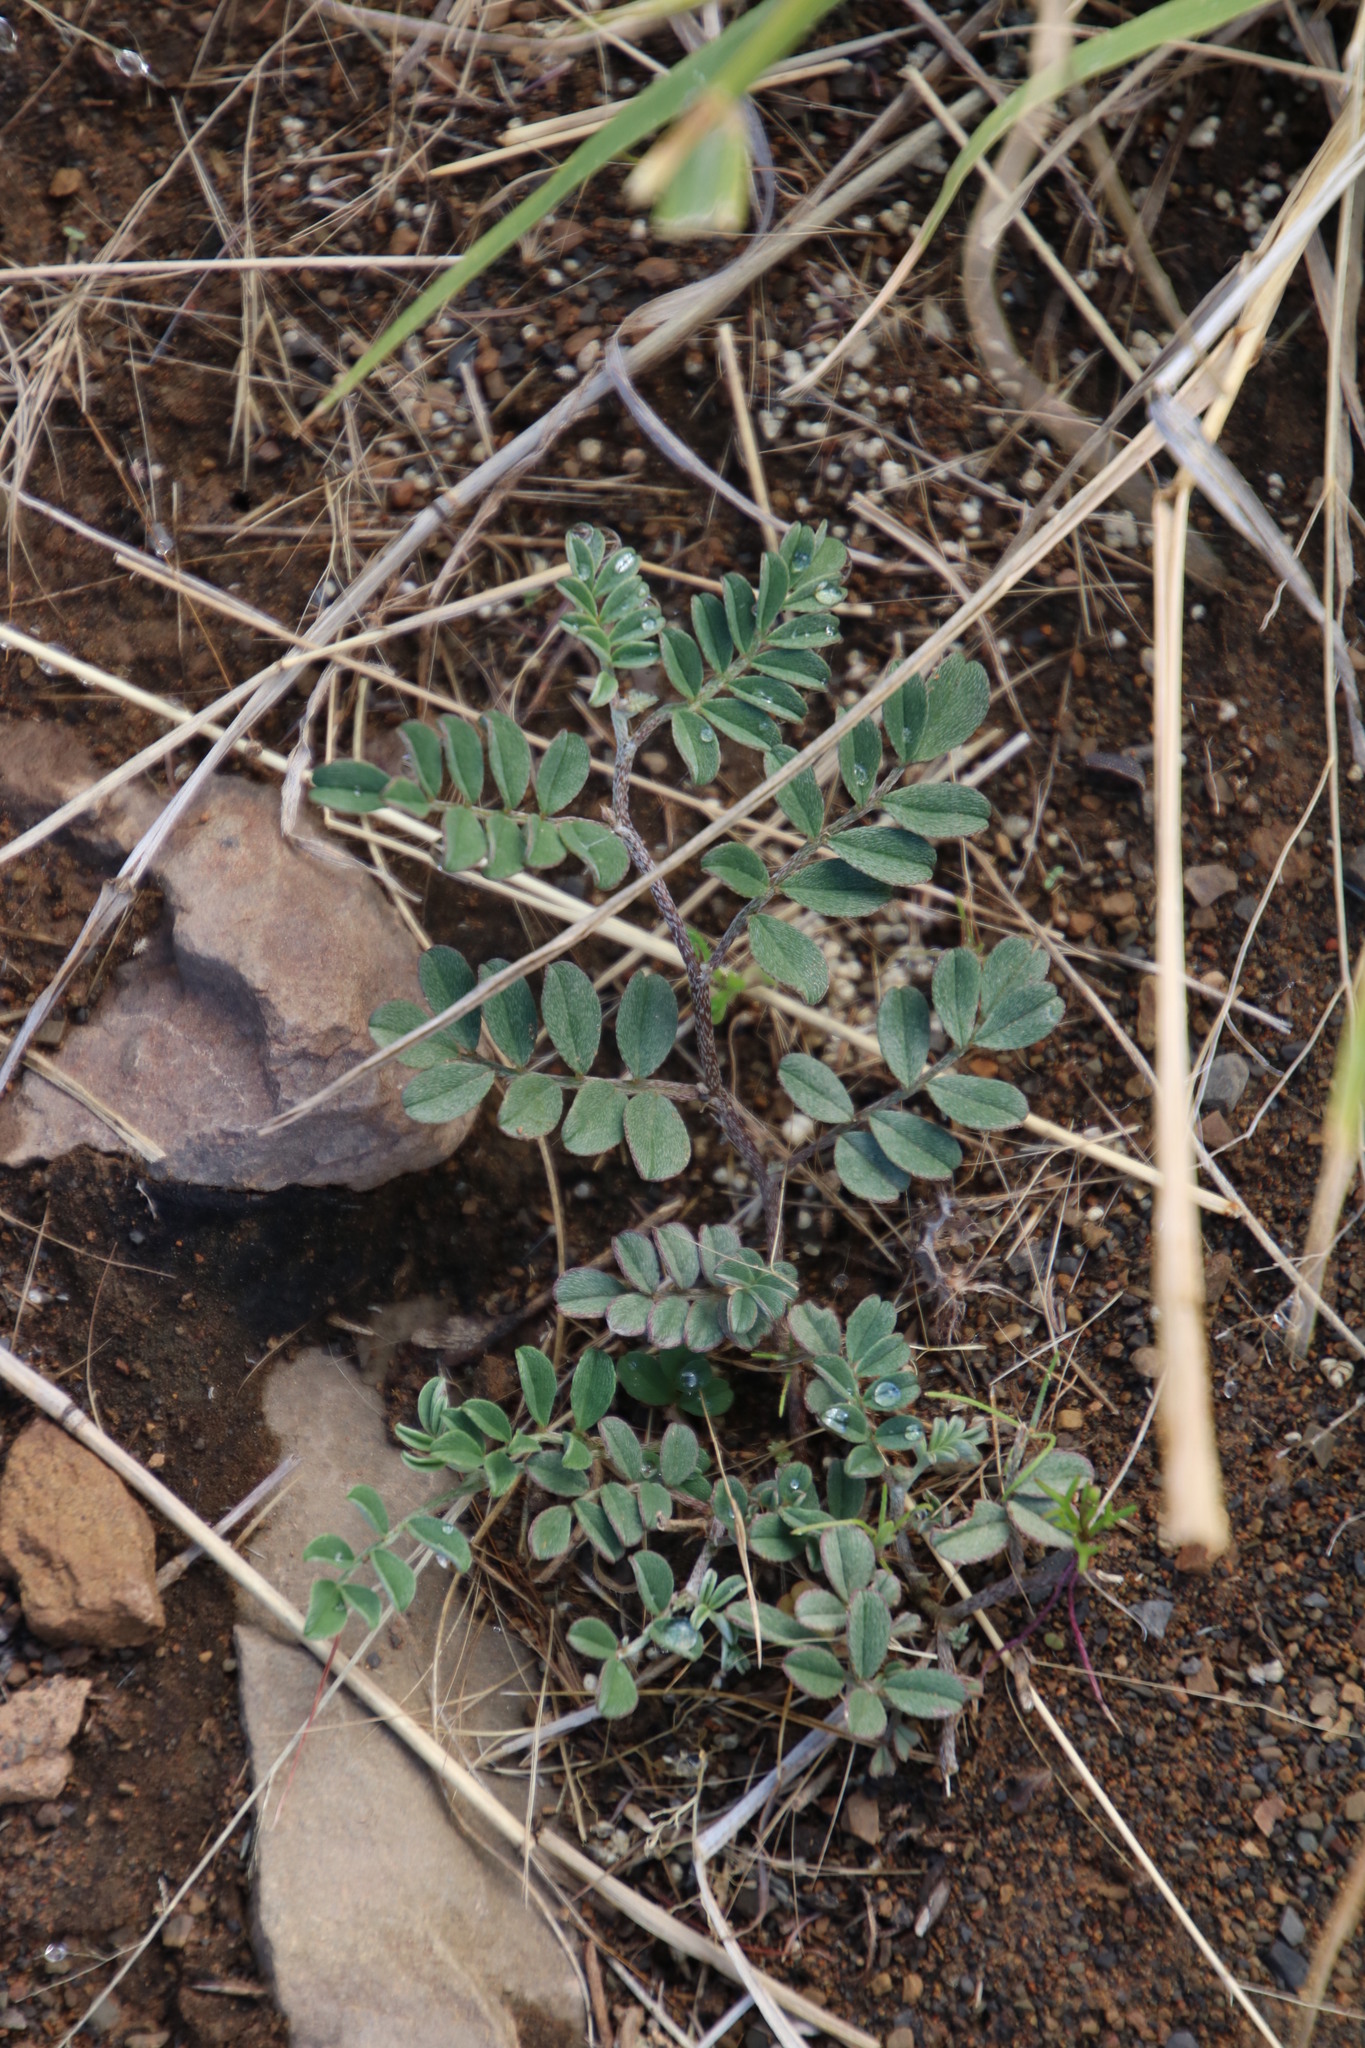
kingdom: Plantae
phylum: Tracheophyta
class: Magnoliopsida
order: Fabales
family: Fabaceae
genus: Indigofera
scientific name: Indigofera alternans
